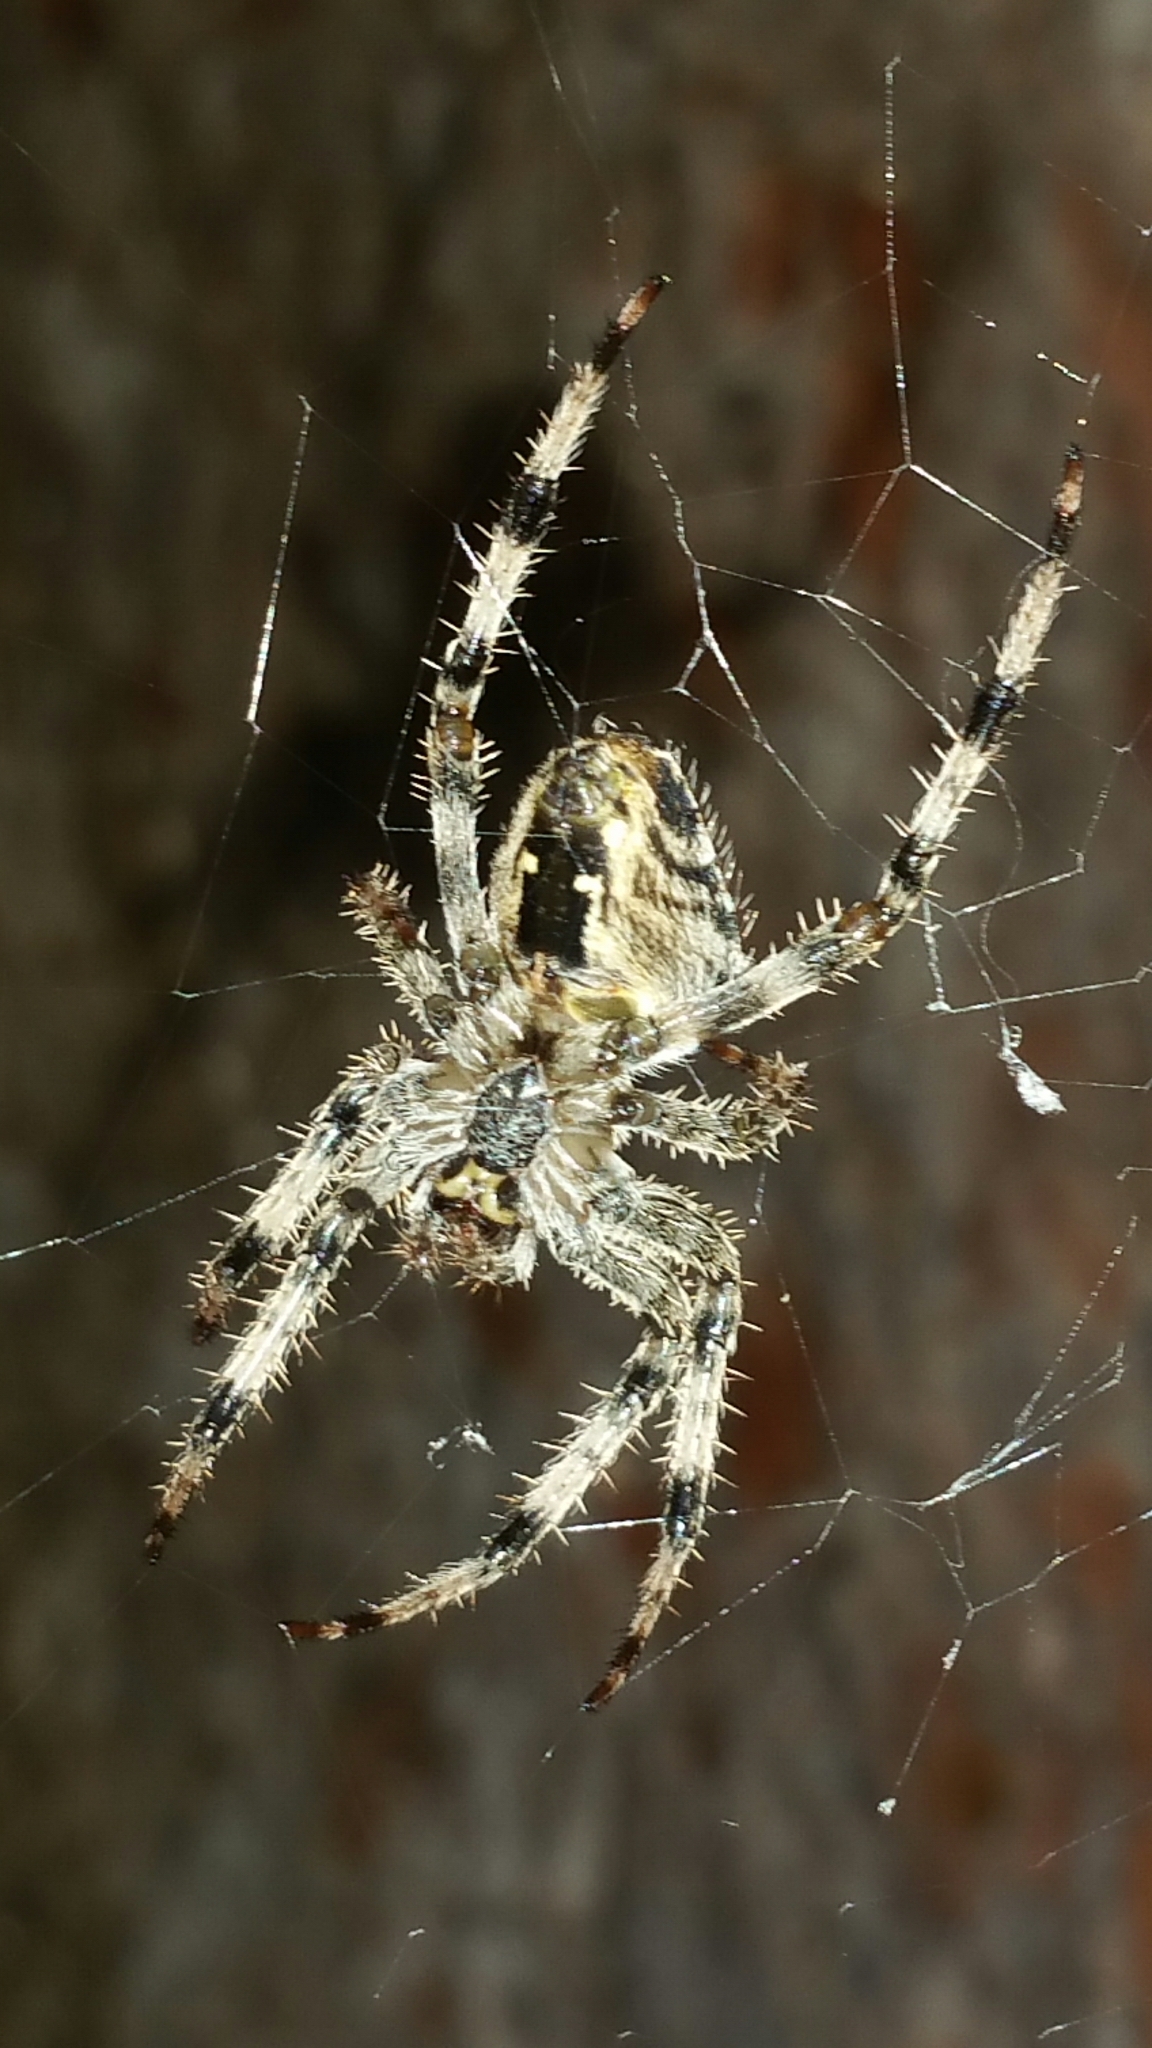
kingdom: Animalia
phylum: Arthropoda
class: Arachnida
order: Araneae
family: Araneidae
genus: Araneus
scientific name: Araneus diadematus
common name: Cross orbweaver
